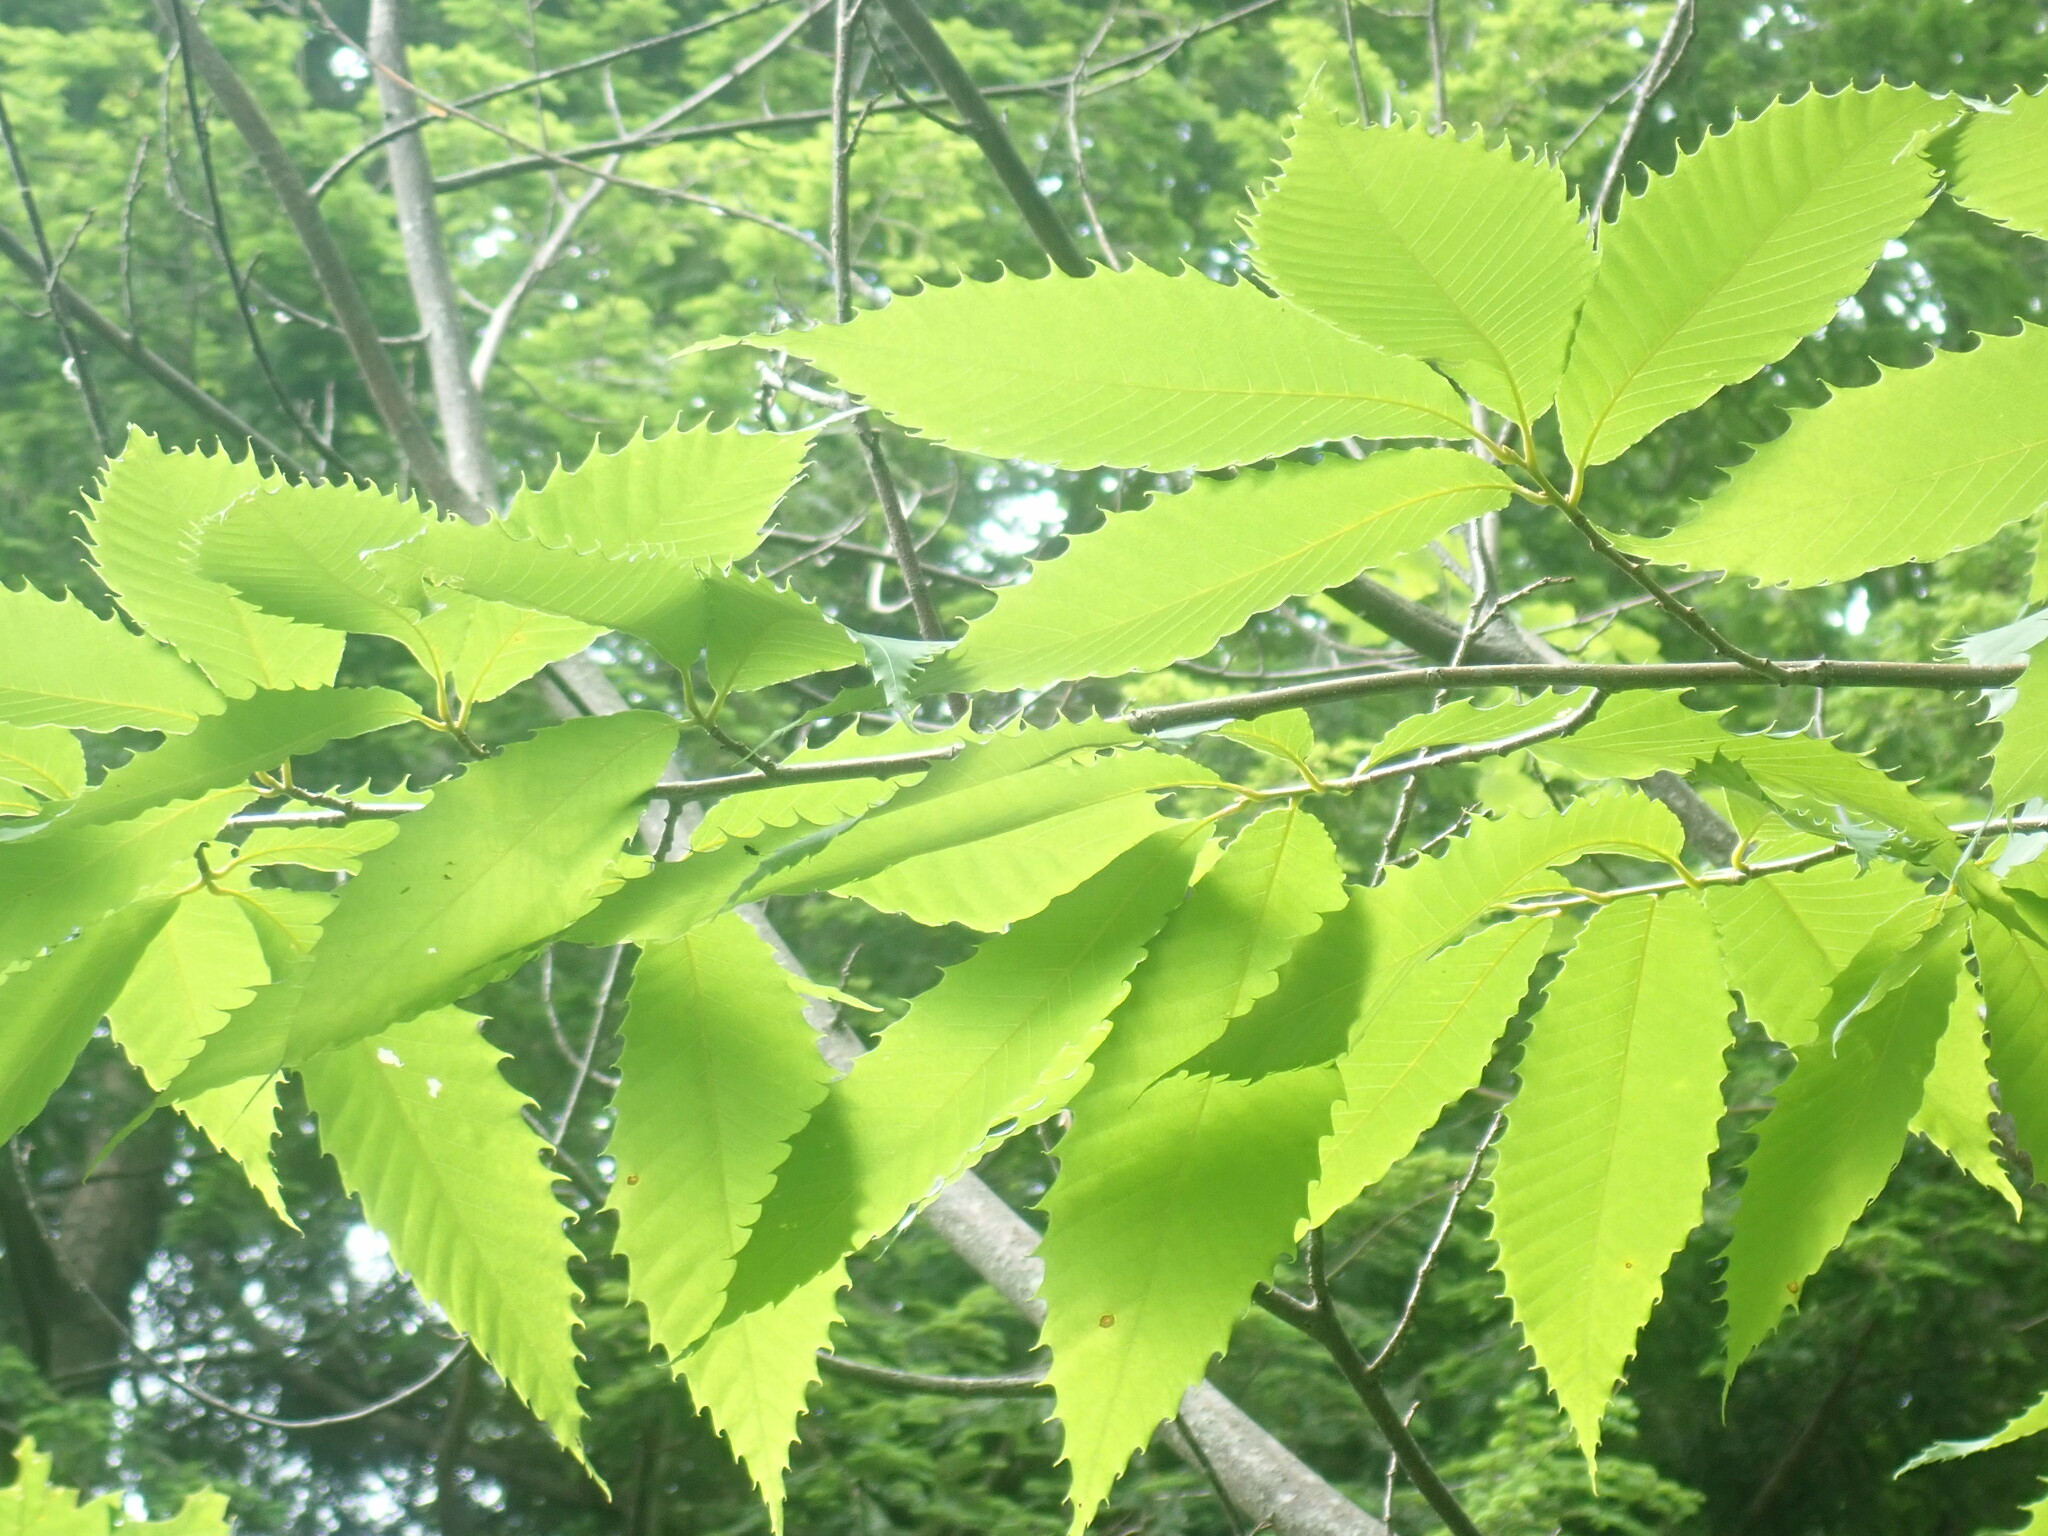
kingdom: Plantae
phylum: Tracheophyta
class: Magnoliopsida
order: Fagales
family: Fagaceae
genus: Castanea
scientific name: Castanea dentata
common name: American chestnut
